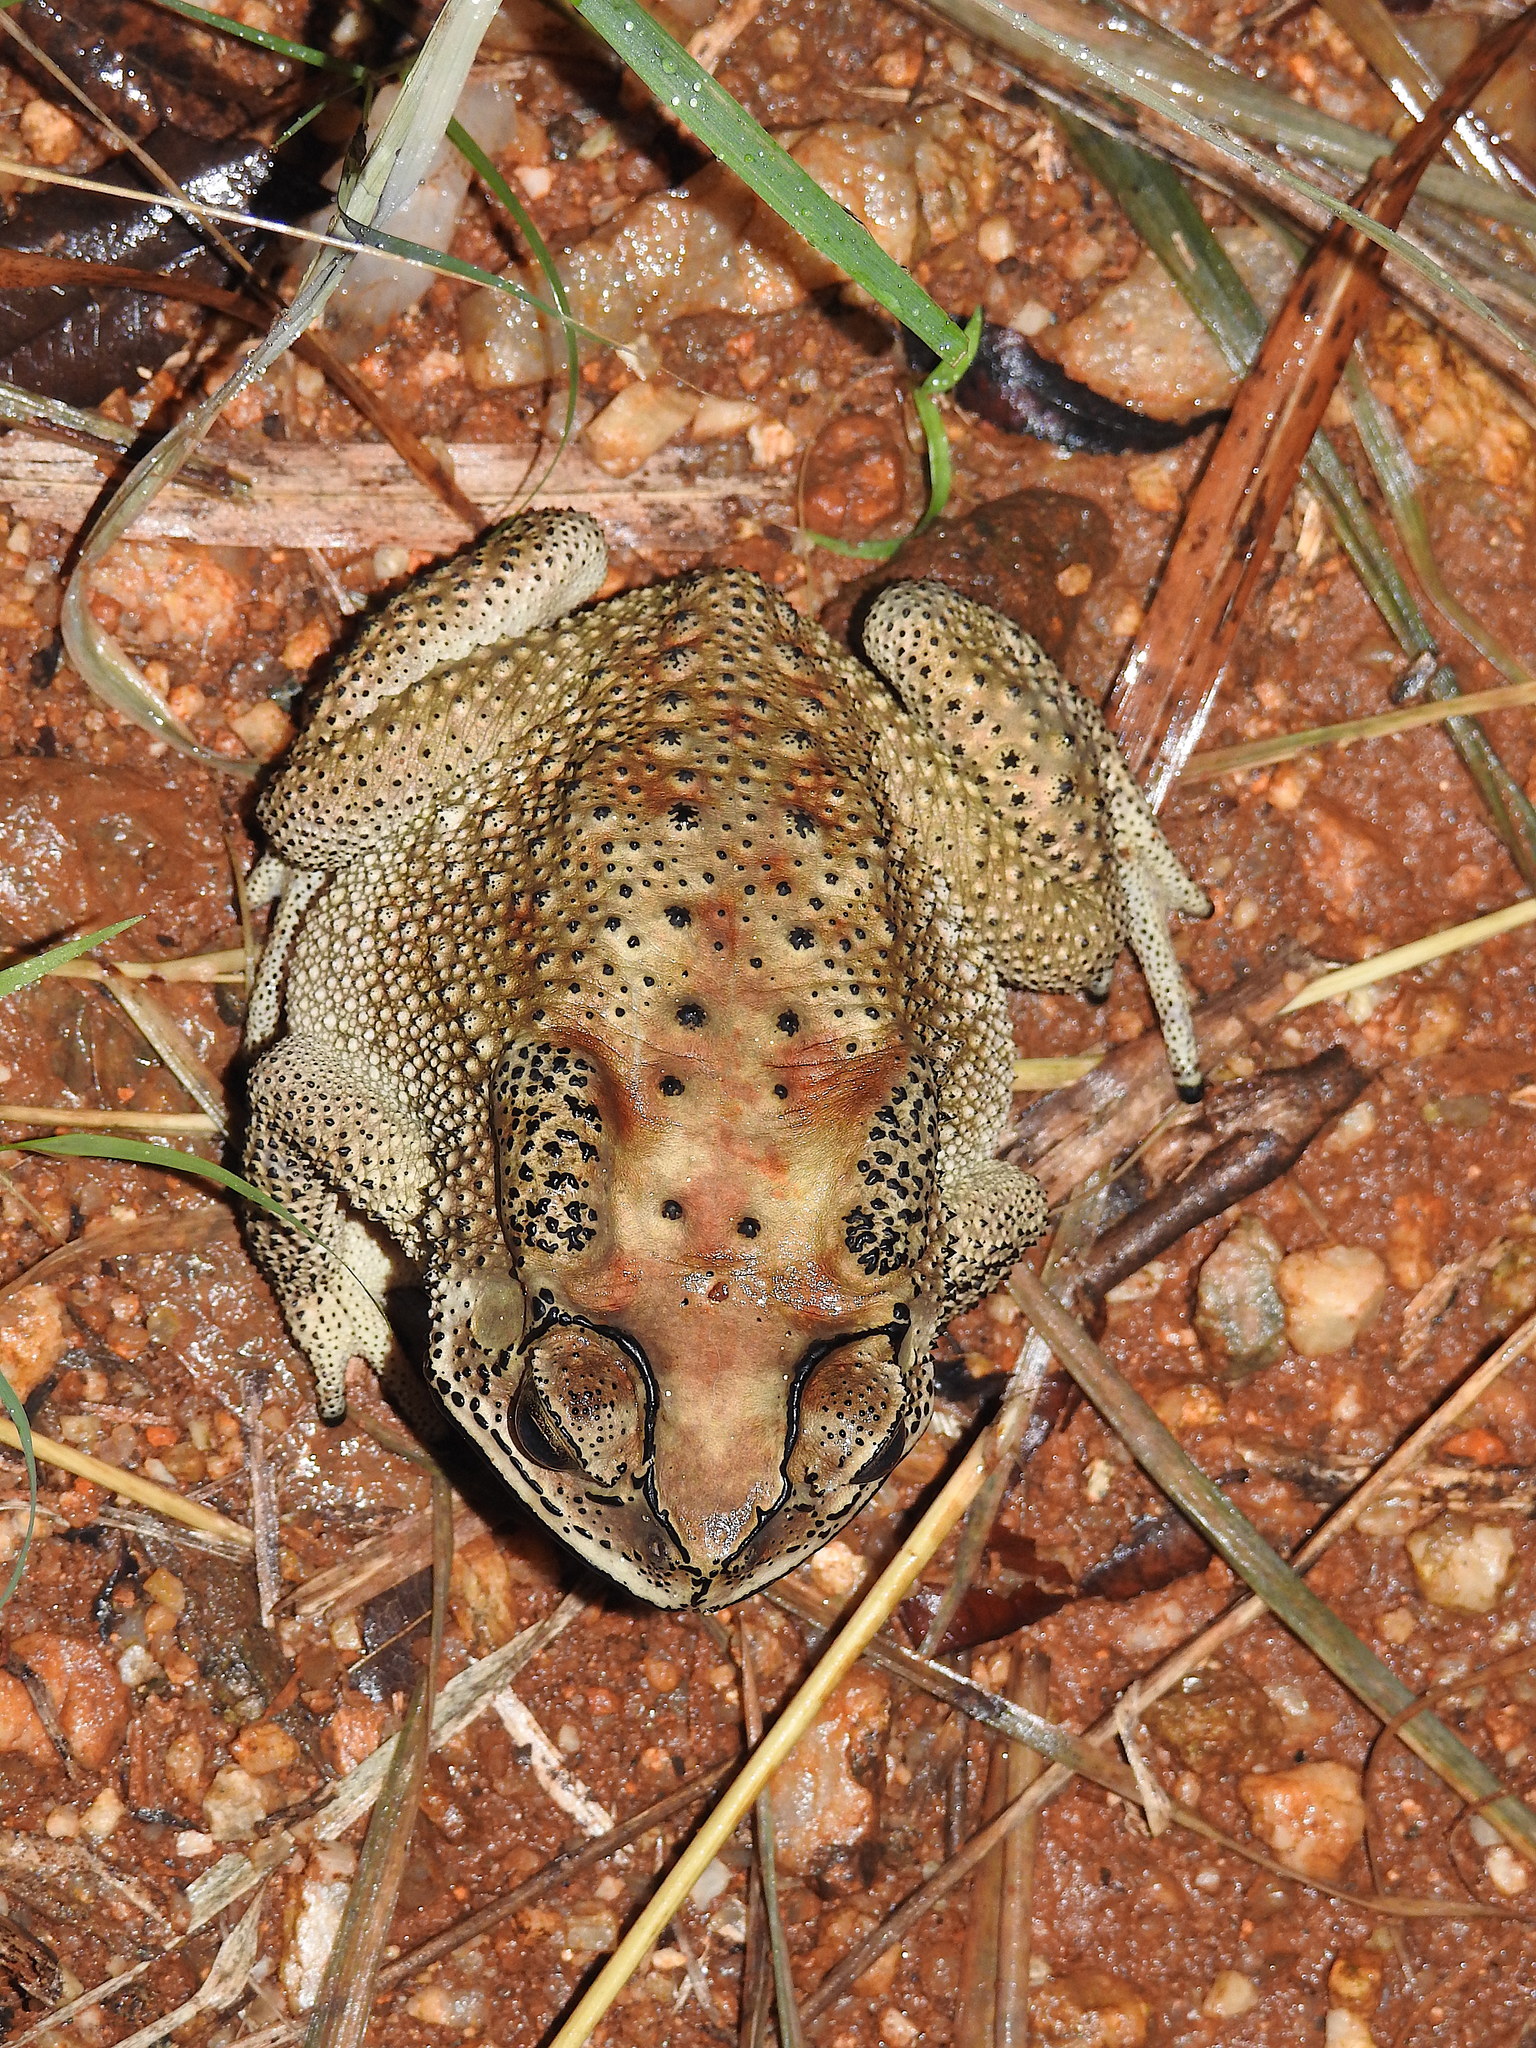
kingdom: Animalia
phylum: Chordata
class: Amphibia
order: Anura
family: Bufonidae
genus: Duttaphrynus
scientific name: Duttaphrynus melanostictus
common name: Common sunda toad
